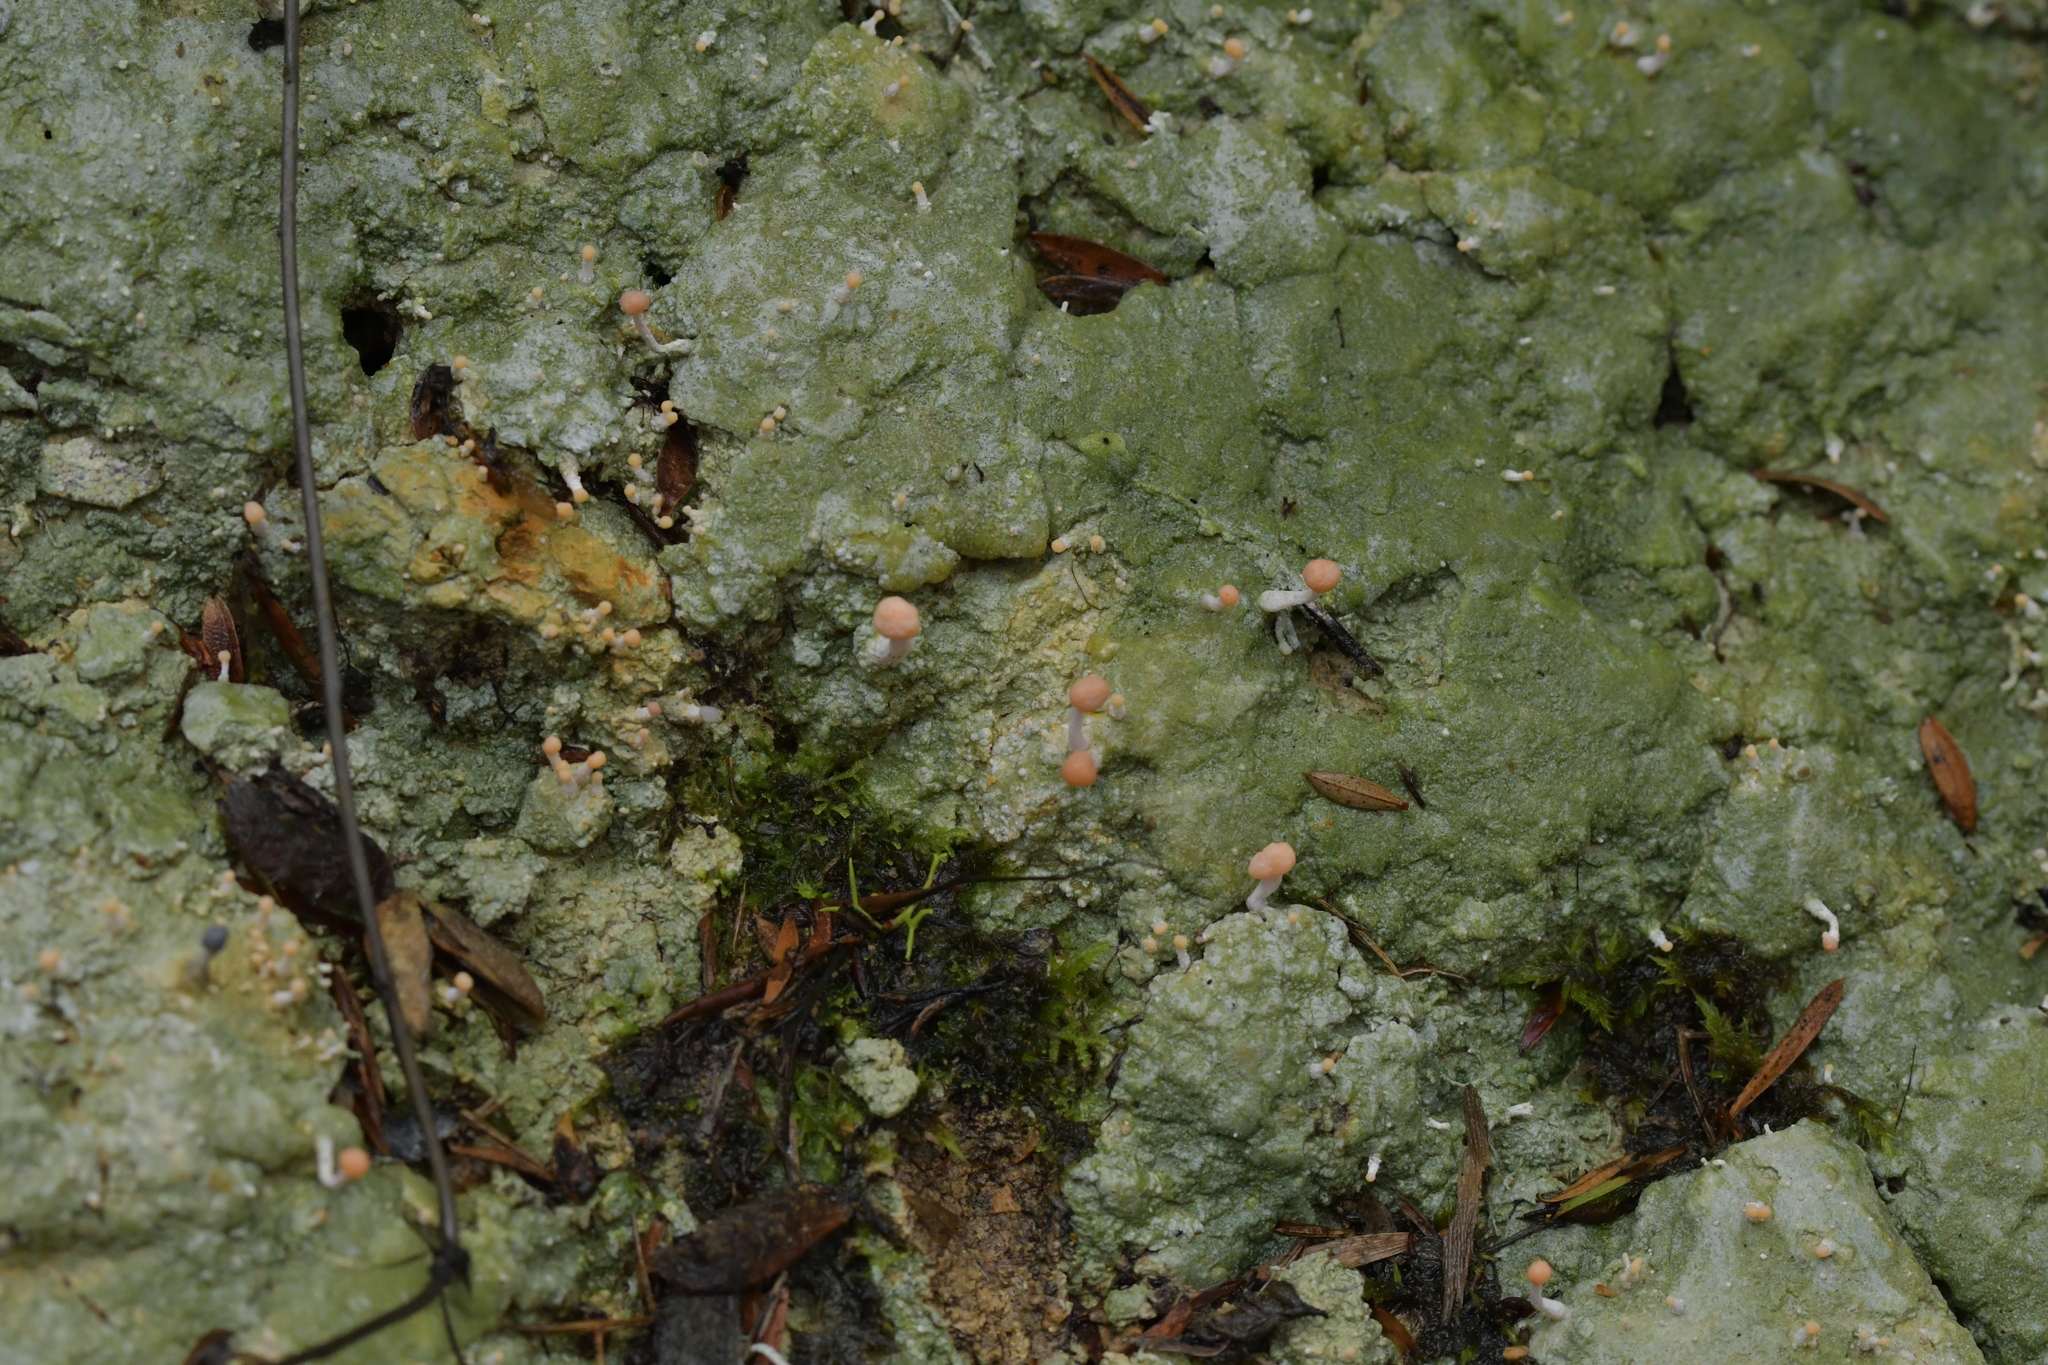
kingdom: Fungi
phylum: Ascomycota
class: Lecanoromycetes
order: Pertusariales
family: Icmadophilaceae
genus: Dibaeis
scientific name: Dibaeis arcuata
